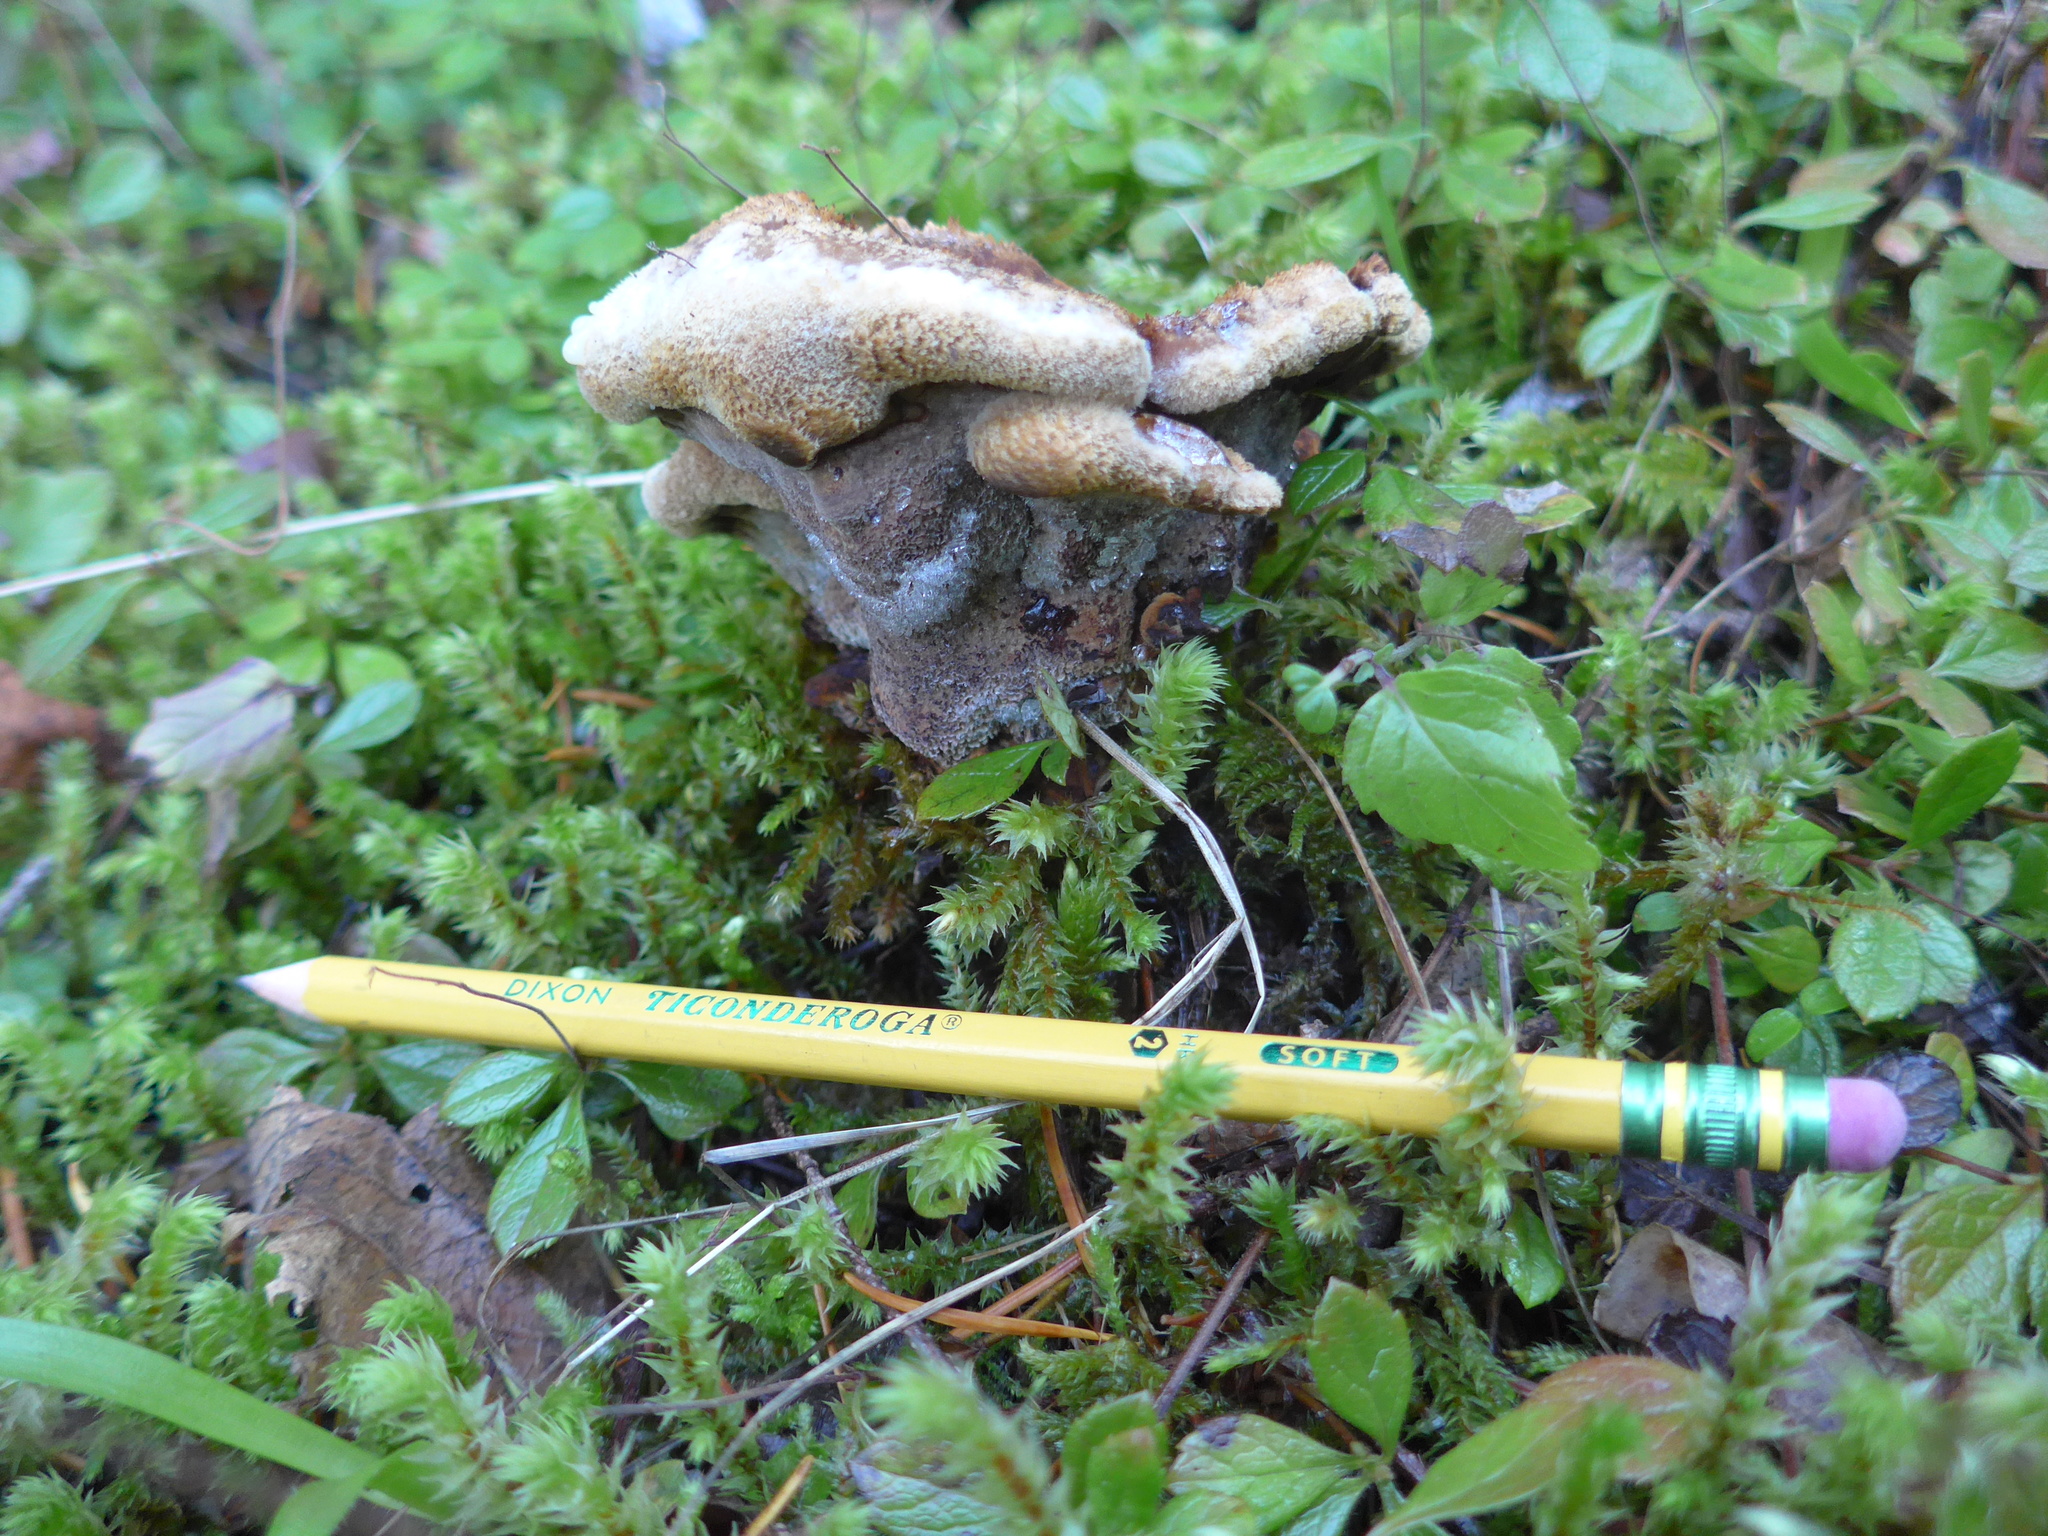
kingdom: Fungi
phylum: Basidiomycota
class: Agaricomycetes
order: Polyporales
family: Laetiporaceae
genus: Phaeolus
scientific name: Phaeolus schweinitzii
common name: Dyer's mazegill
